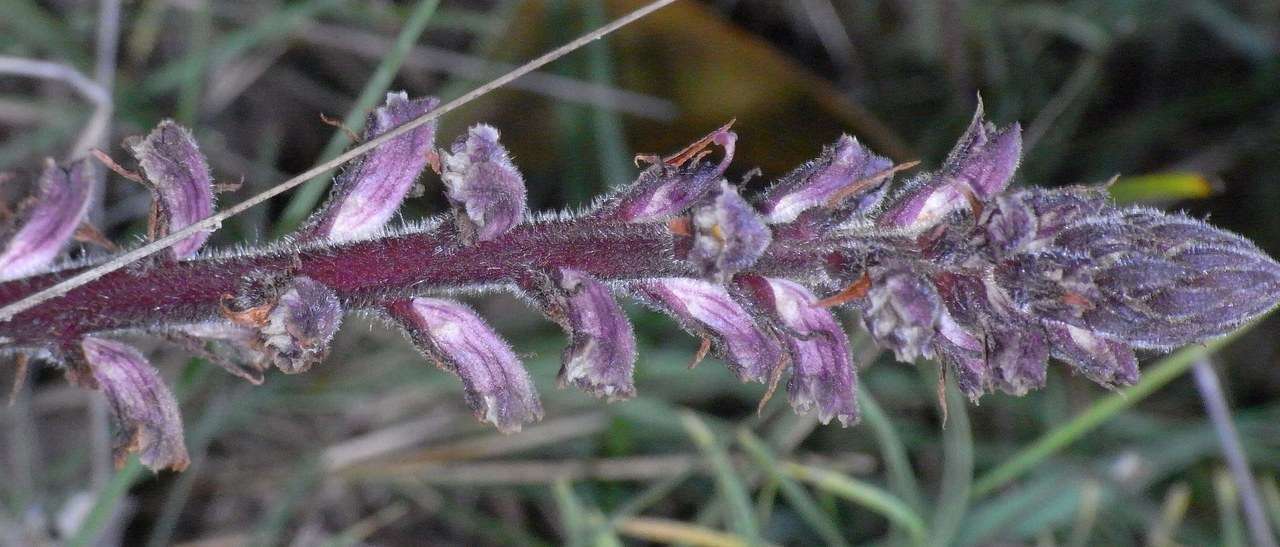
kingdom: Plantae
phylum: Tracheophyta
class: Magnoliopsida
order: Lamiales
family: Orobanchaceae
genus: Orobanche
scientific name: Orobanche minor
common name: Common broomrape
